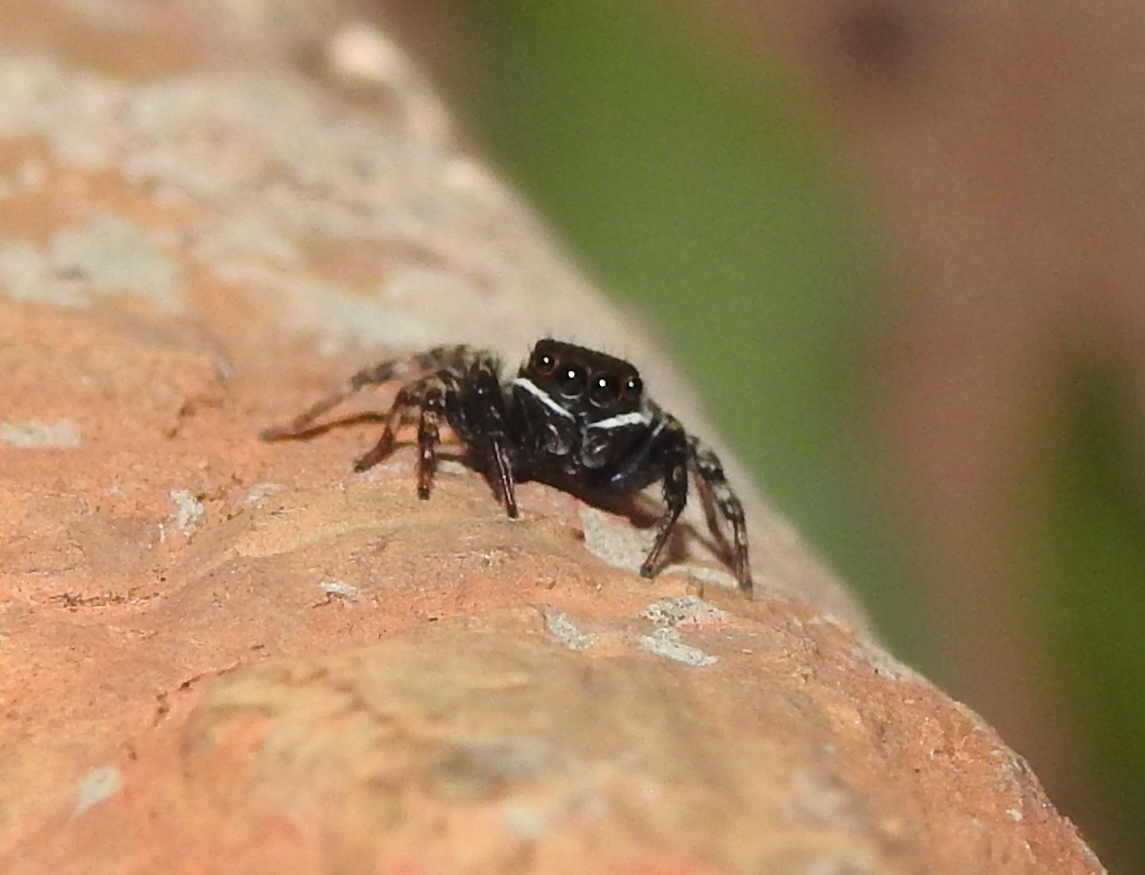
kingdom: Animalia
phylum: Arthropoda
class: Arachnida
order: Araneae
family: Salticidae
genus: Hasarius
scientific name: Hasarius adansoni
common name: Jumping spider
